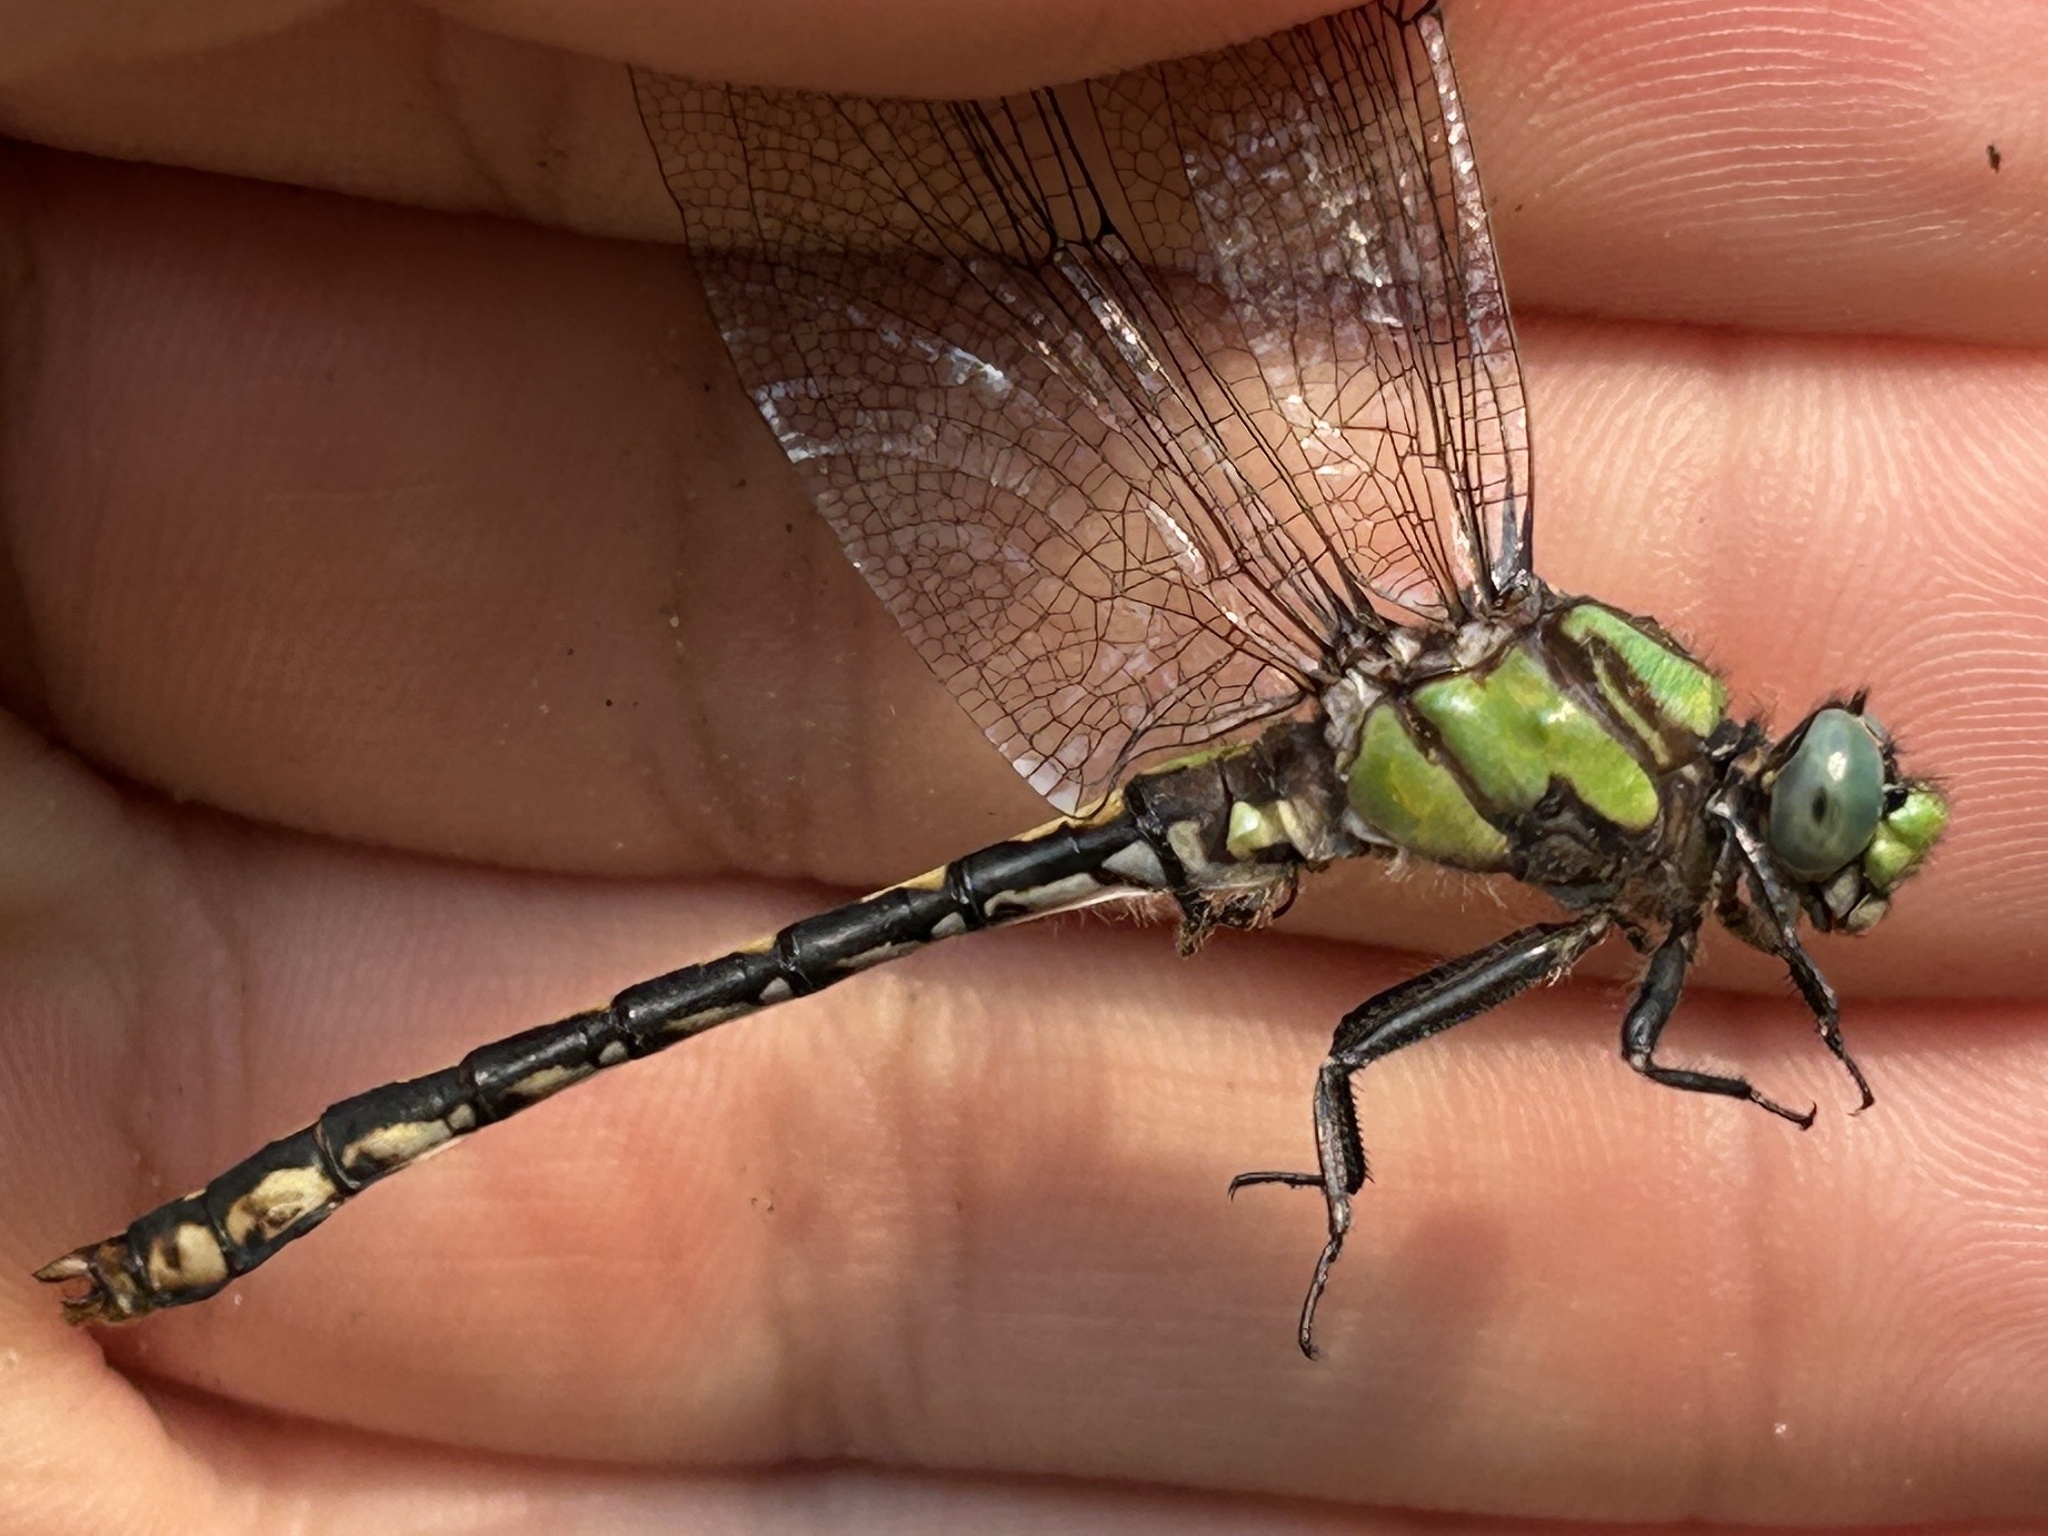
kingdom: Animalia
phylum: Arthropoda
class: Insecta
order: Odonata
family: Gomphidae
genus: Ophiogomphus
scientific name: Ophiogomphus carolus
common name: Riffle snaketail
